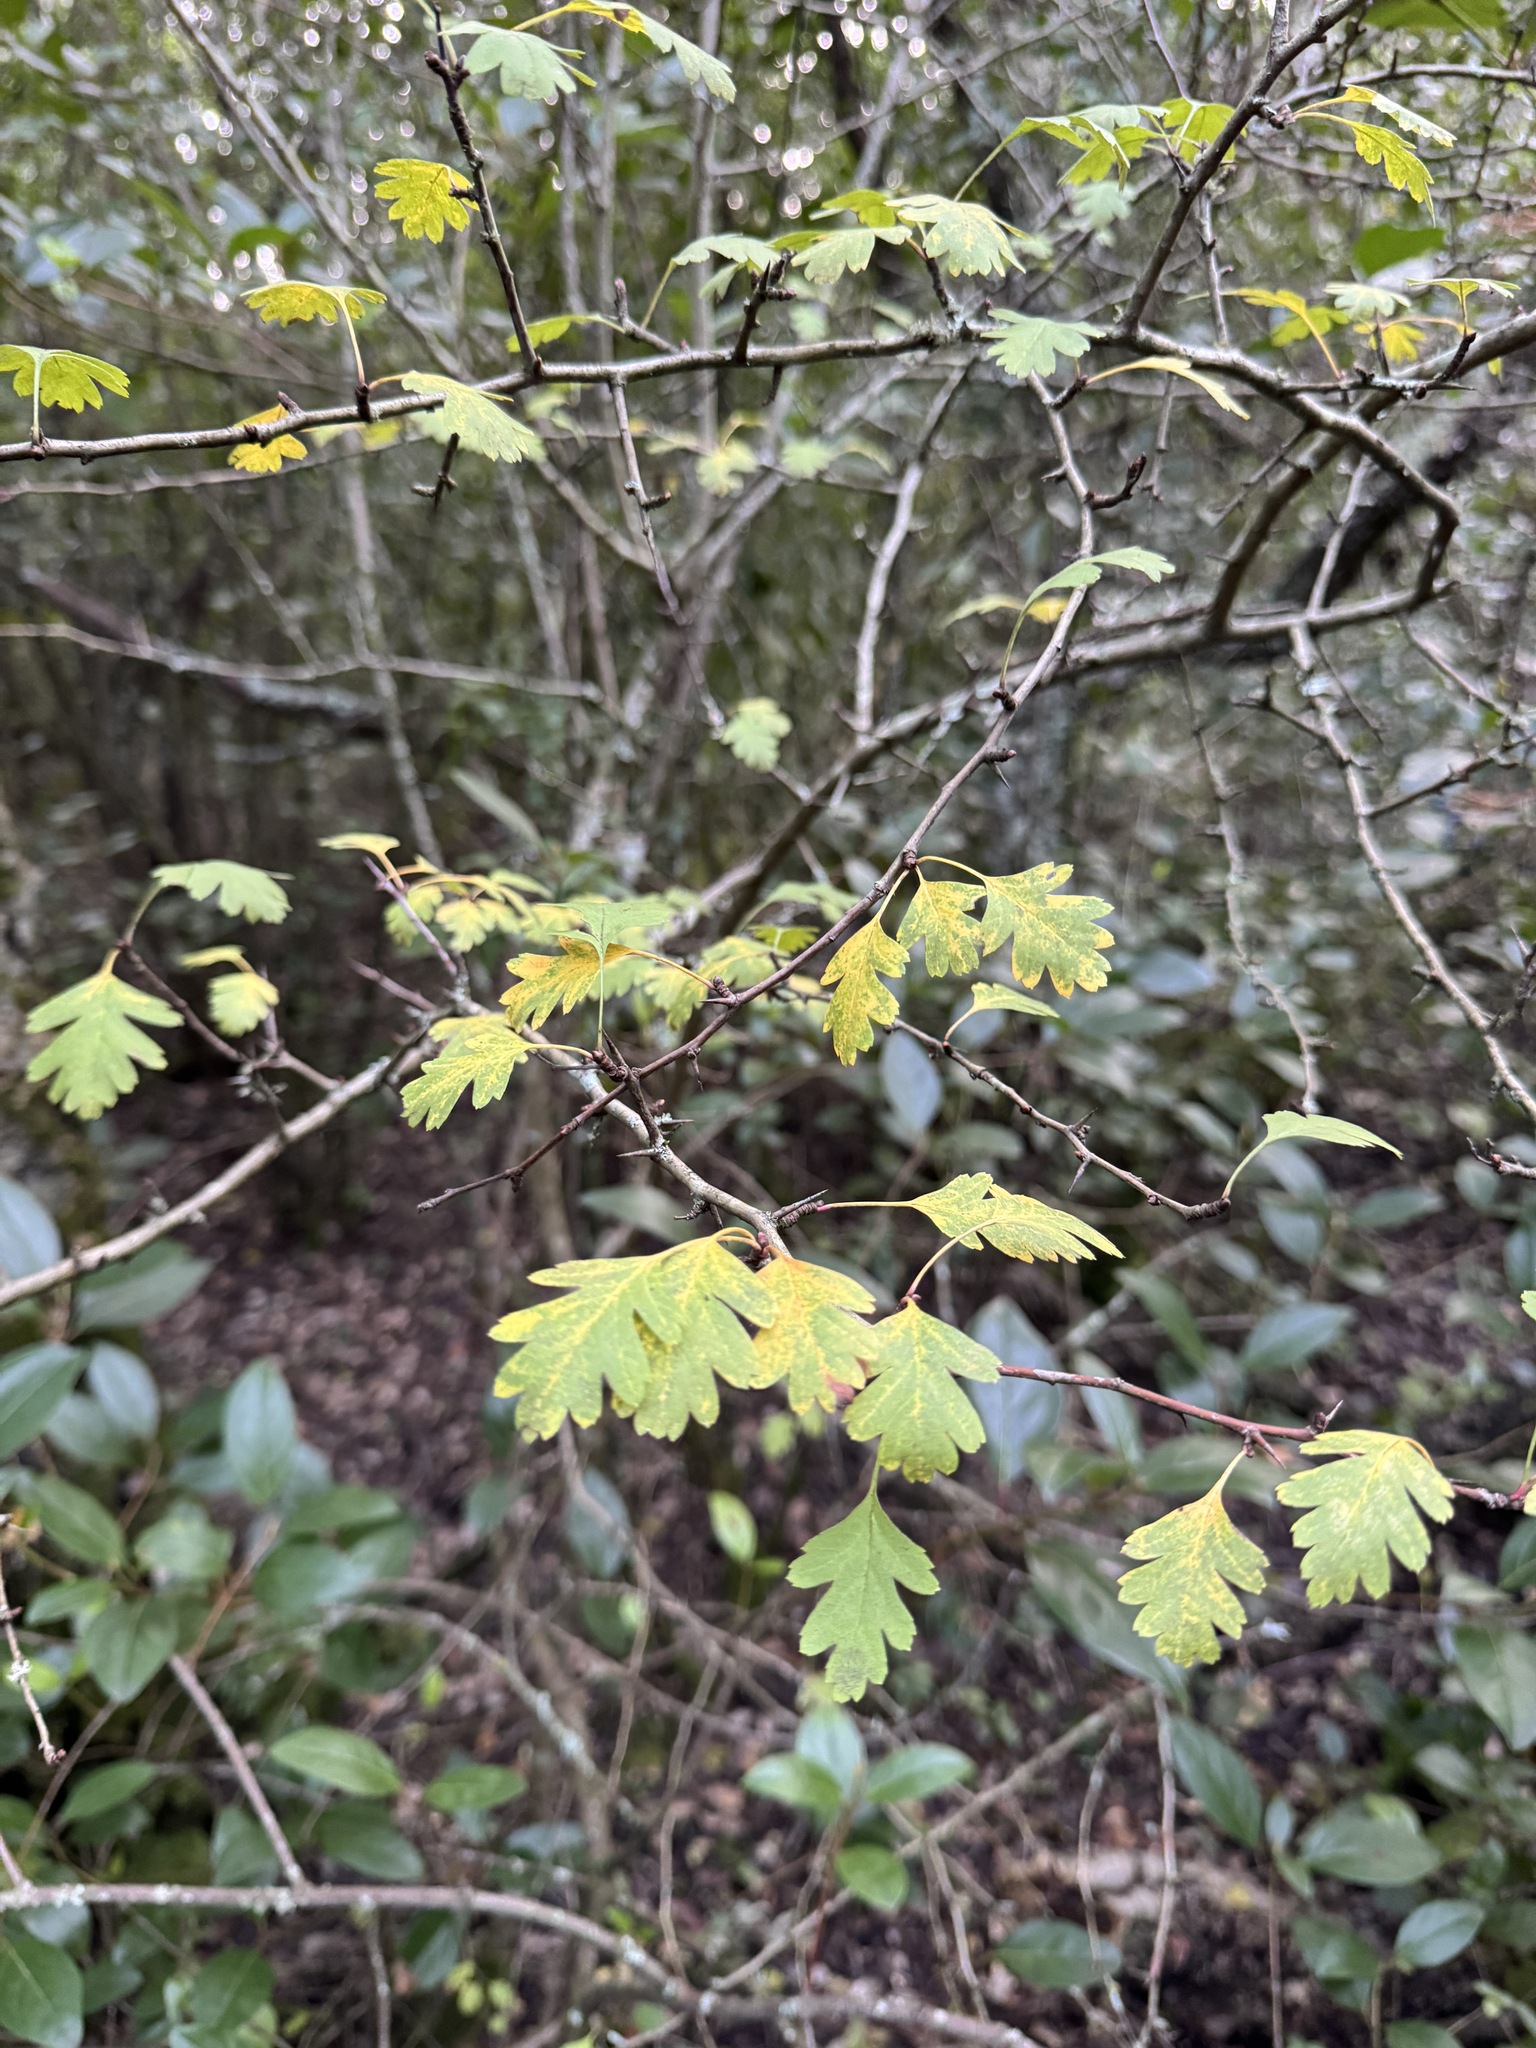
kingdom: Plantae
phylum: Tracheophyta
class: Magnoliopsida
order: Rosales
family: Rosaceae
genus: Crataegus
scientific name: Crataegus monogyna
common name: Hawthorn
